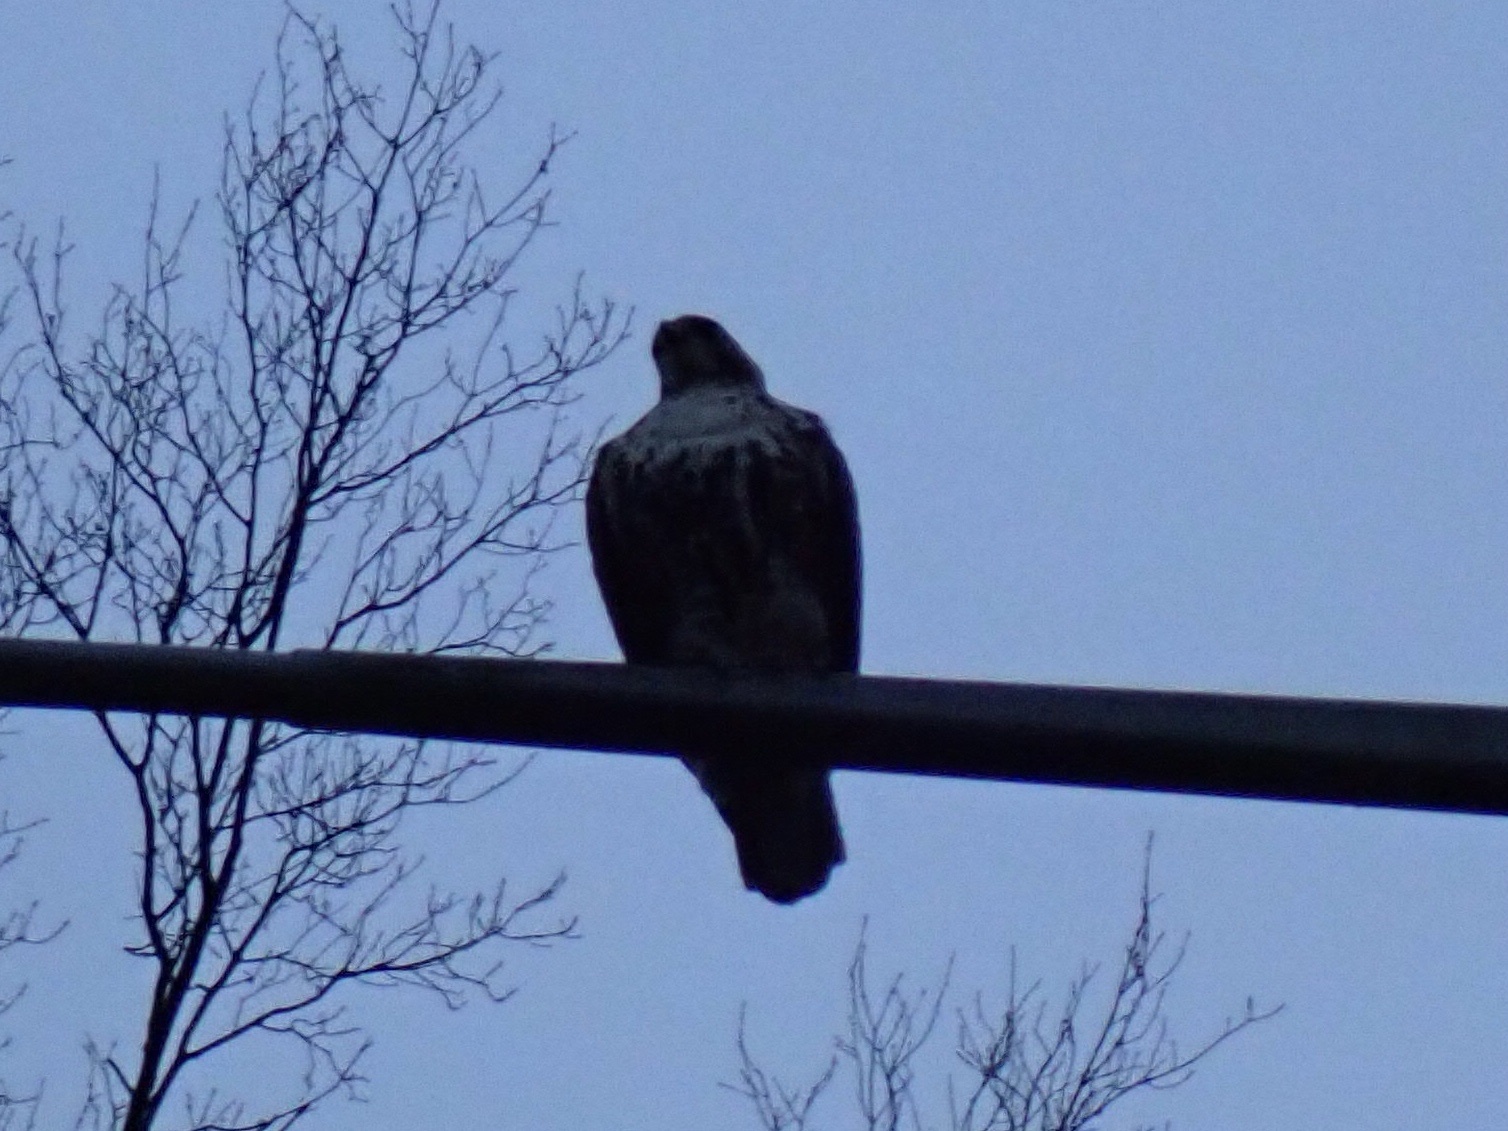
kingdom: Animalia
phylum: Chordata
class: Aves
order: Accipitriformes
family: Accipitridae
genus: Buteo
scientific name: Buteo jamaicensis
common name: Red-tailed hawk
